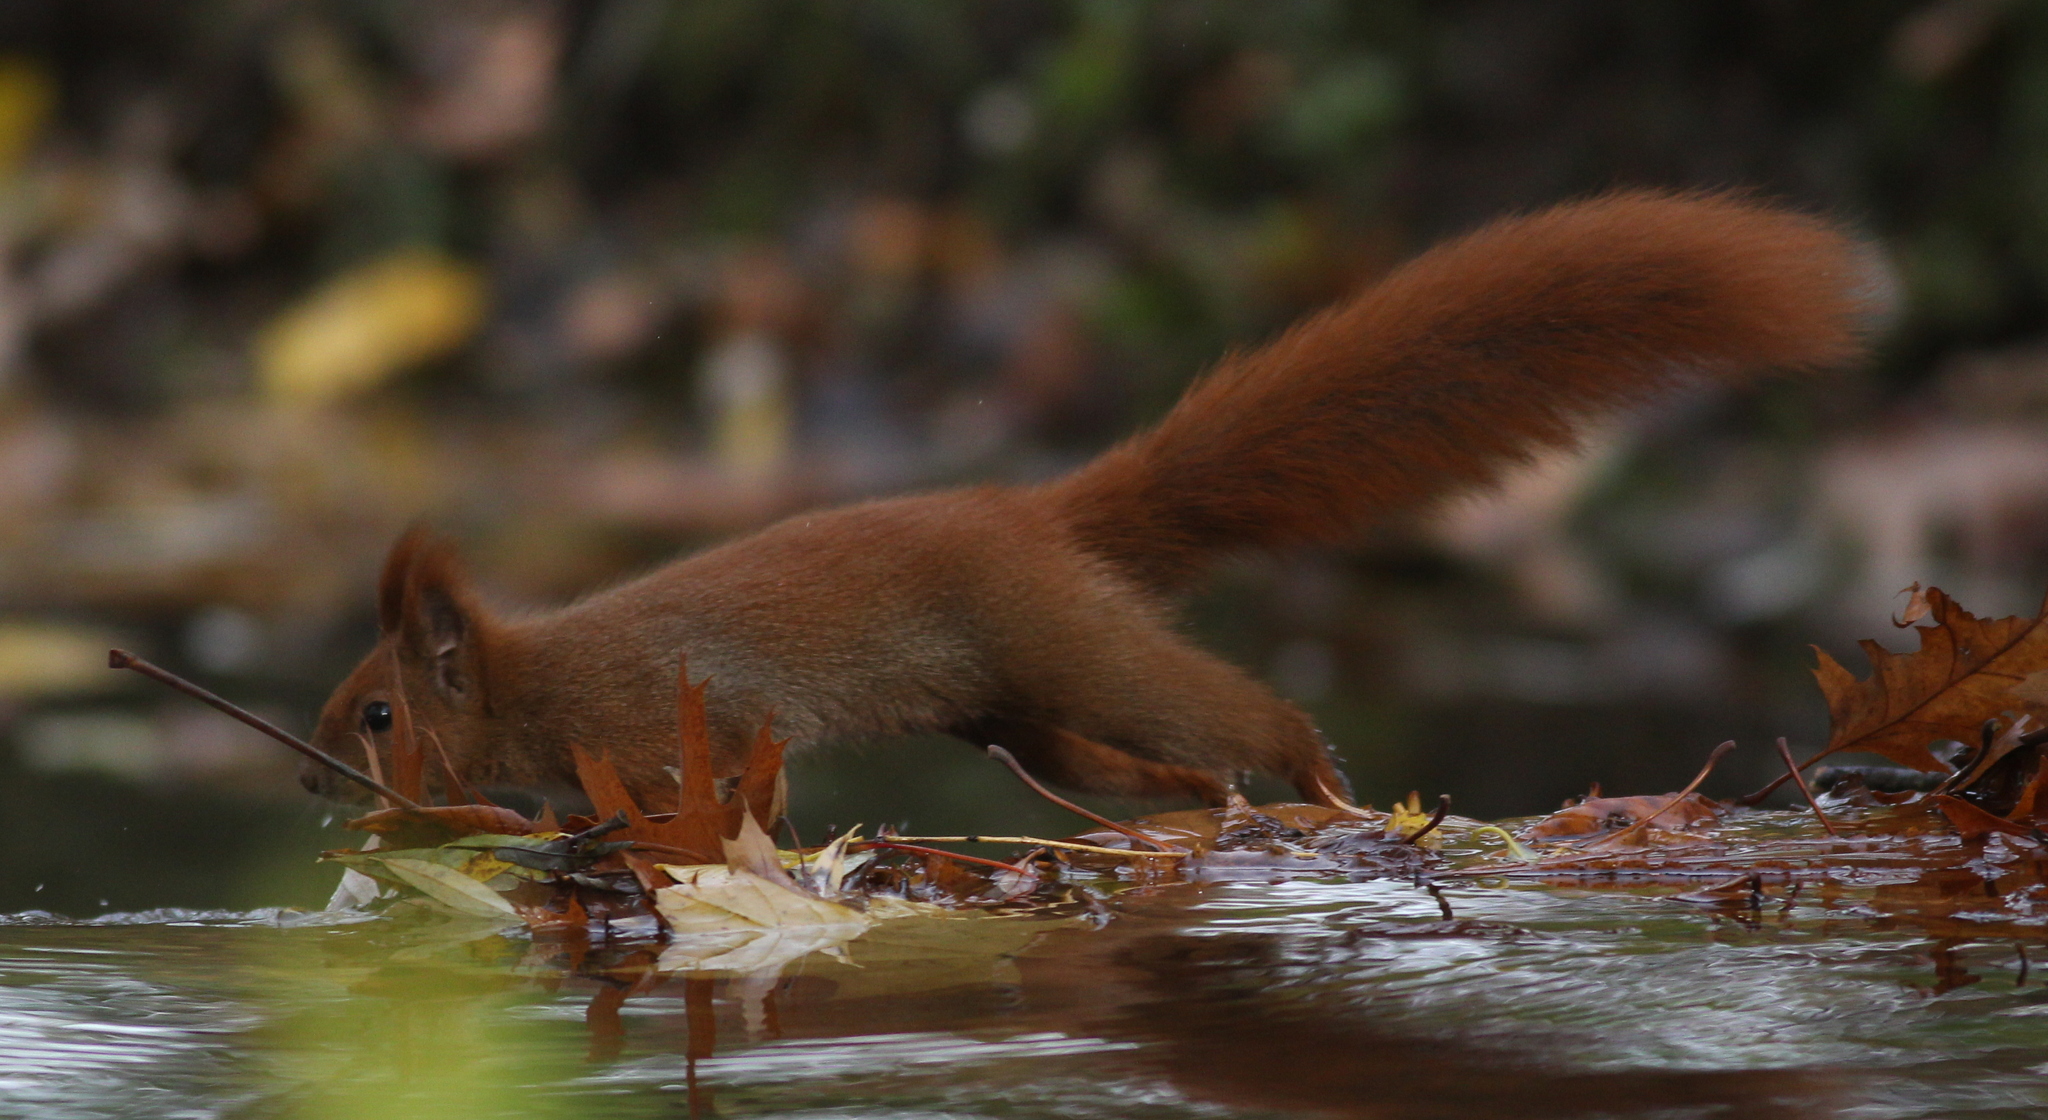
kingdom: Animalia
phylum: Chordata
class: Mammalia
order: Rodentia
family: Sciuridae
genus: Sciurus
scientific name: Sciurus vulgaris
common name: Eurasian red squirrel
